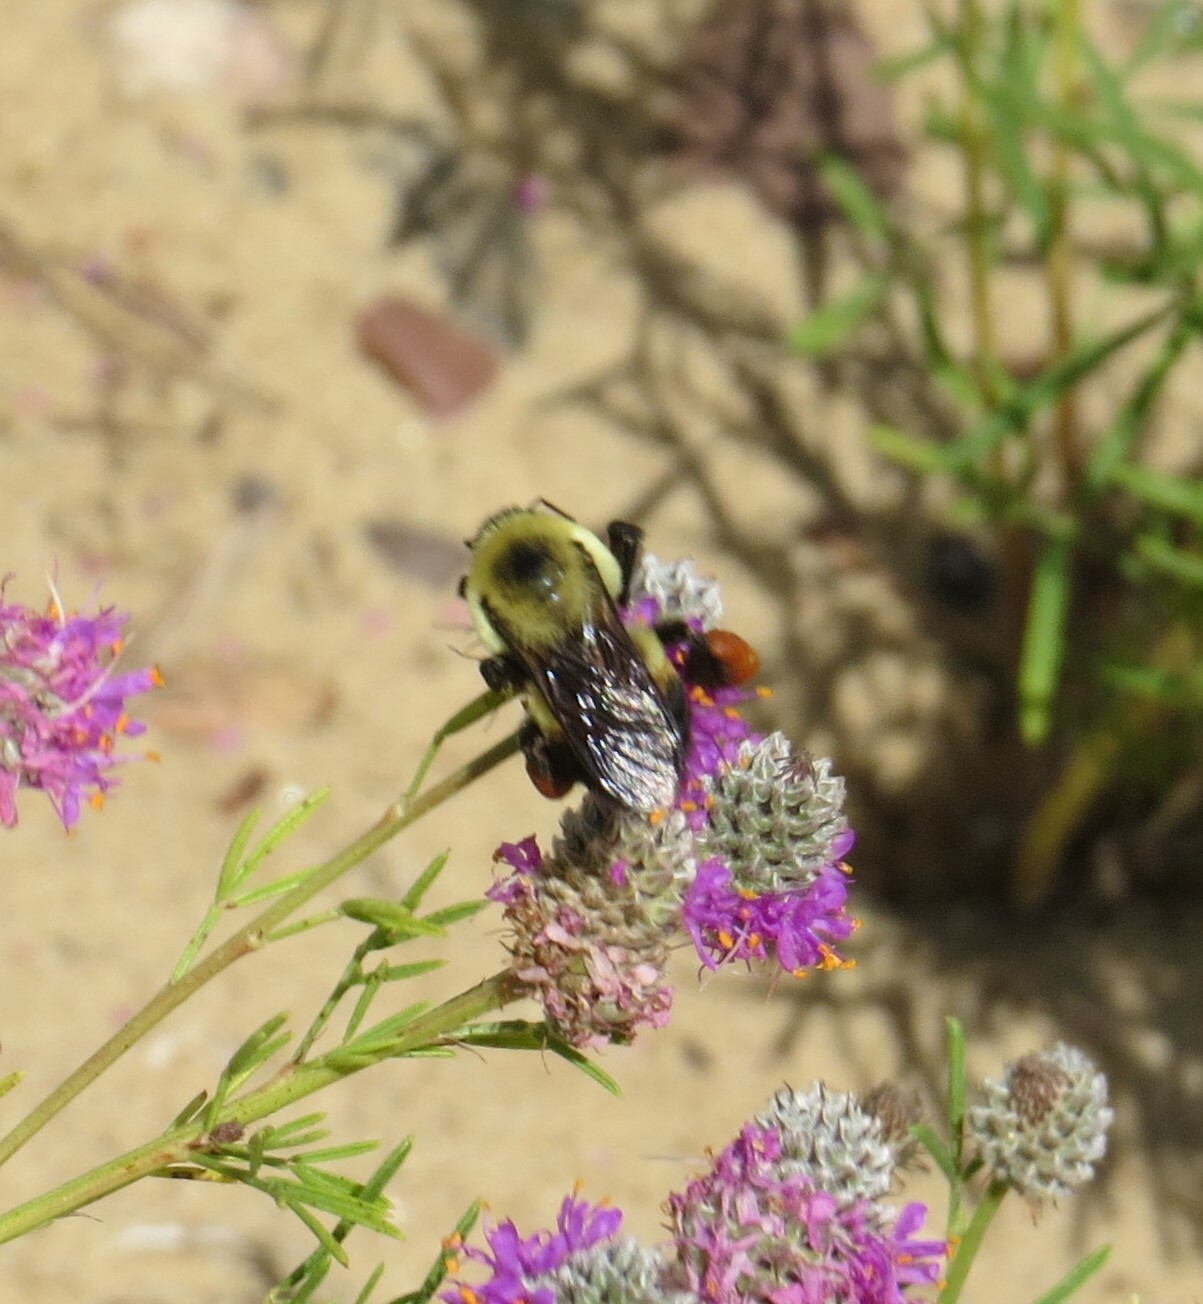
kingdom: Animalia
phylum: Arthropoda
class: Insecta
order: Hymenoptera
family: Apidae
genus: Bombus
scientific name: Bombus griseocollis
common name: Brown-belted bumble bee
